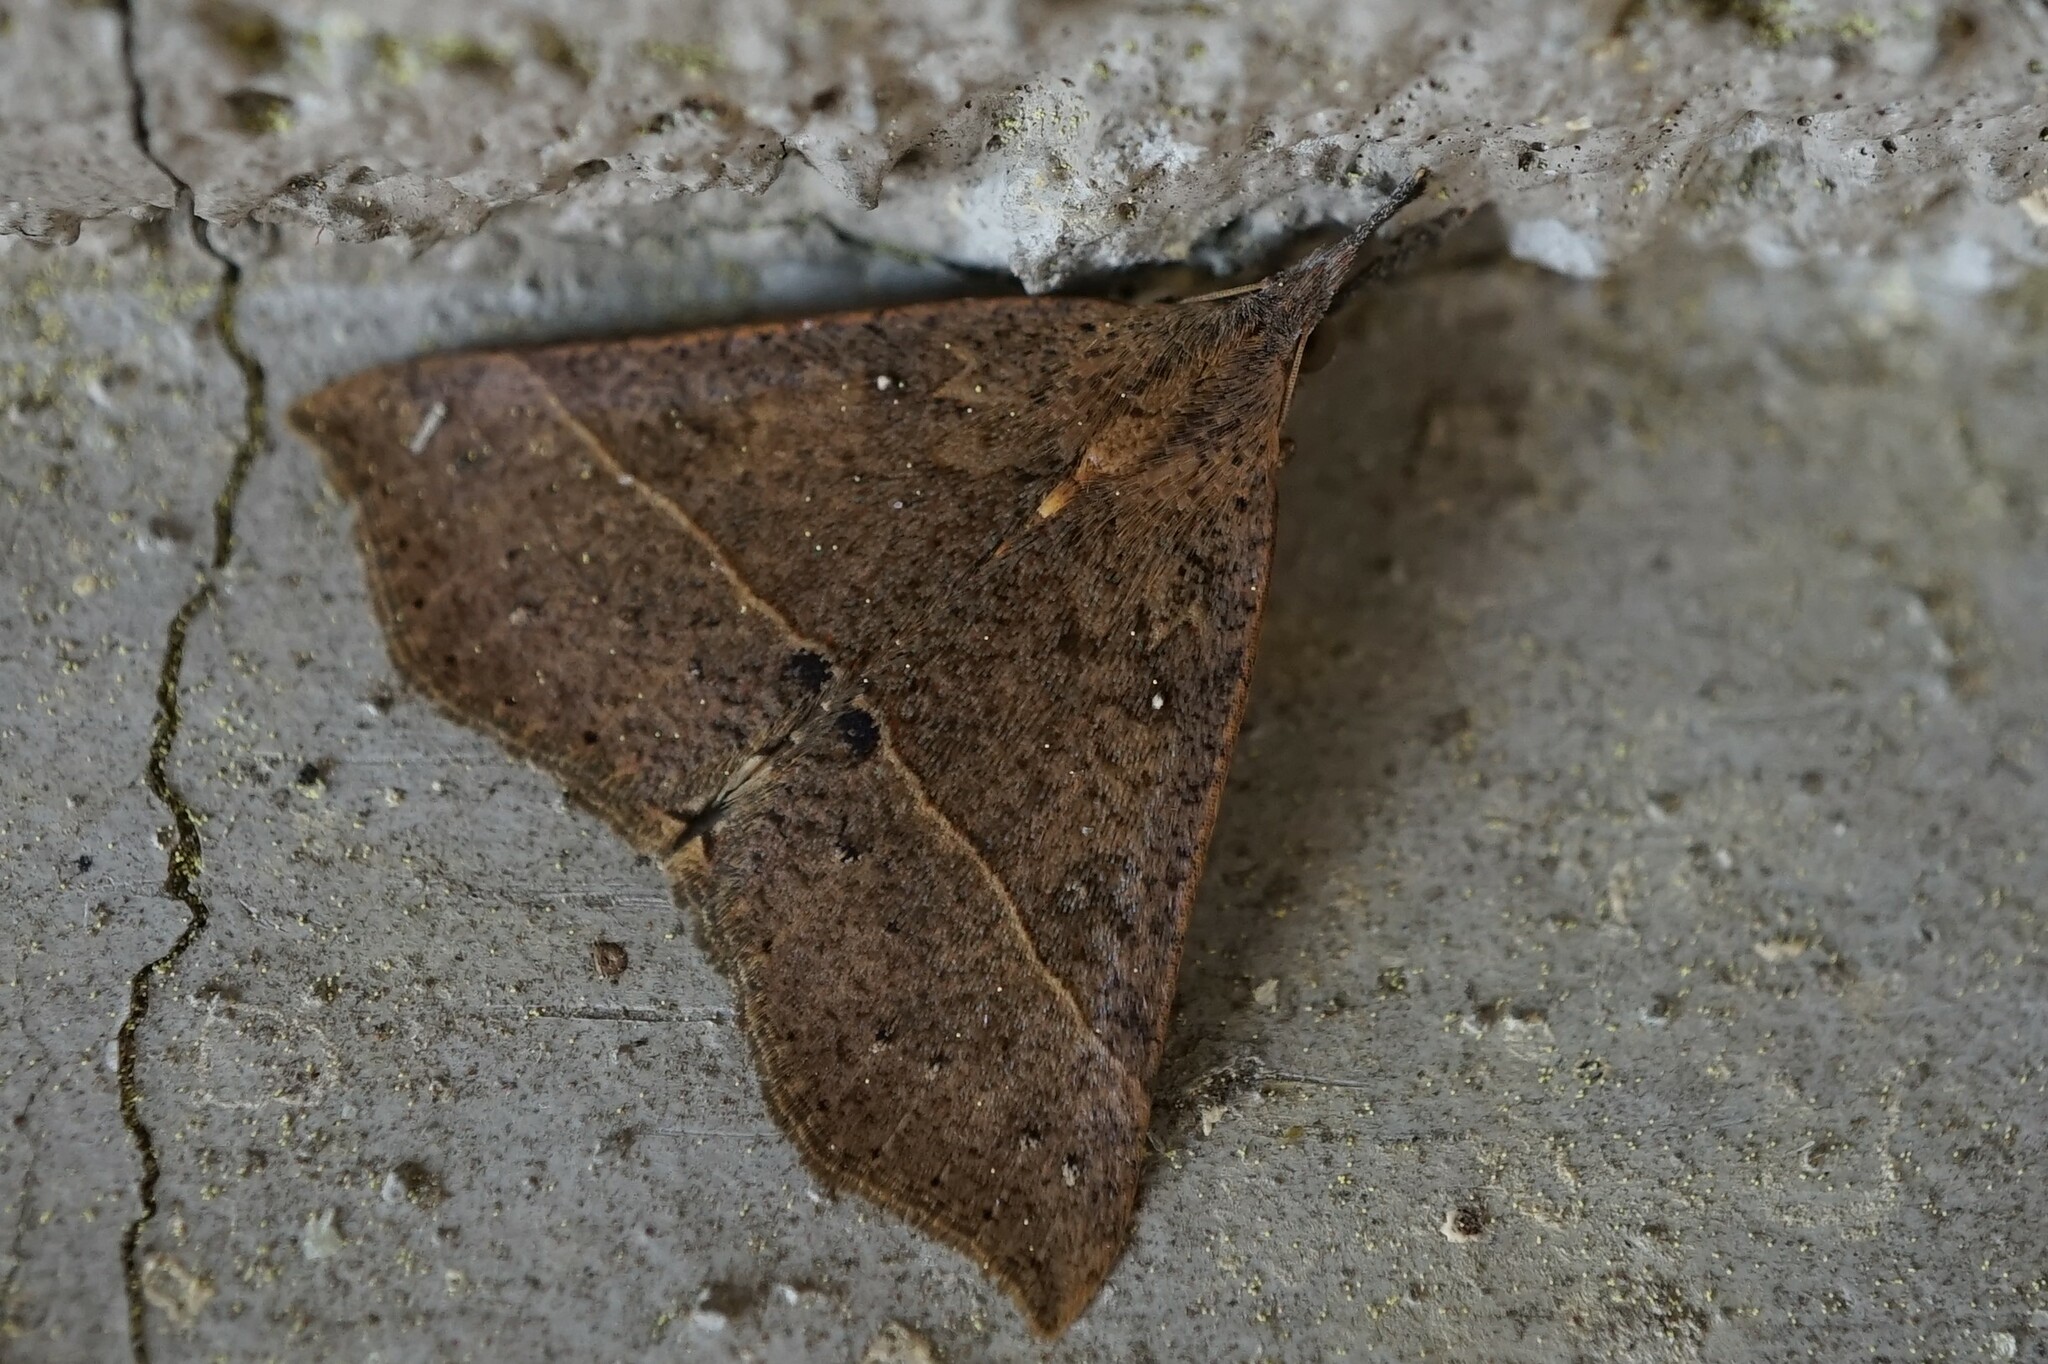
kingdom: Animalia
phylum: Arthropoda
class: Insecta
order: Lepidoptera
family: Erebidae
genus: Hypena
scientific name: Hypena strigatus
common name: Moth
